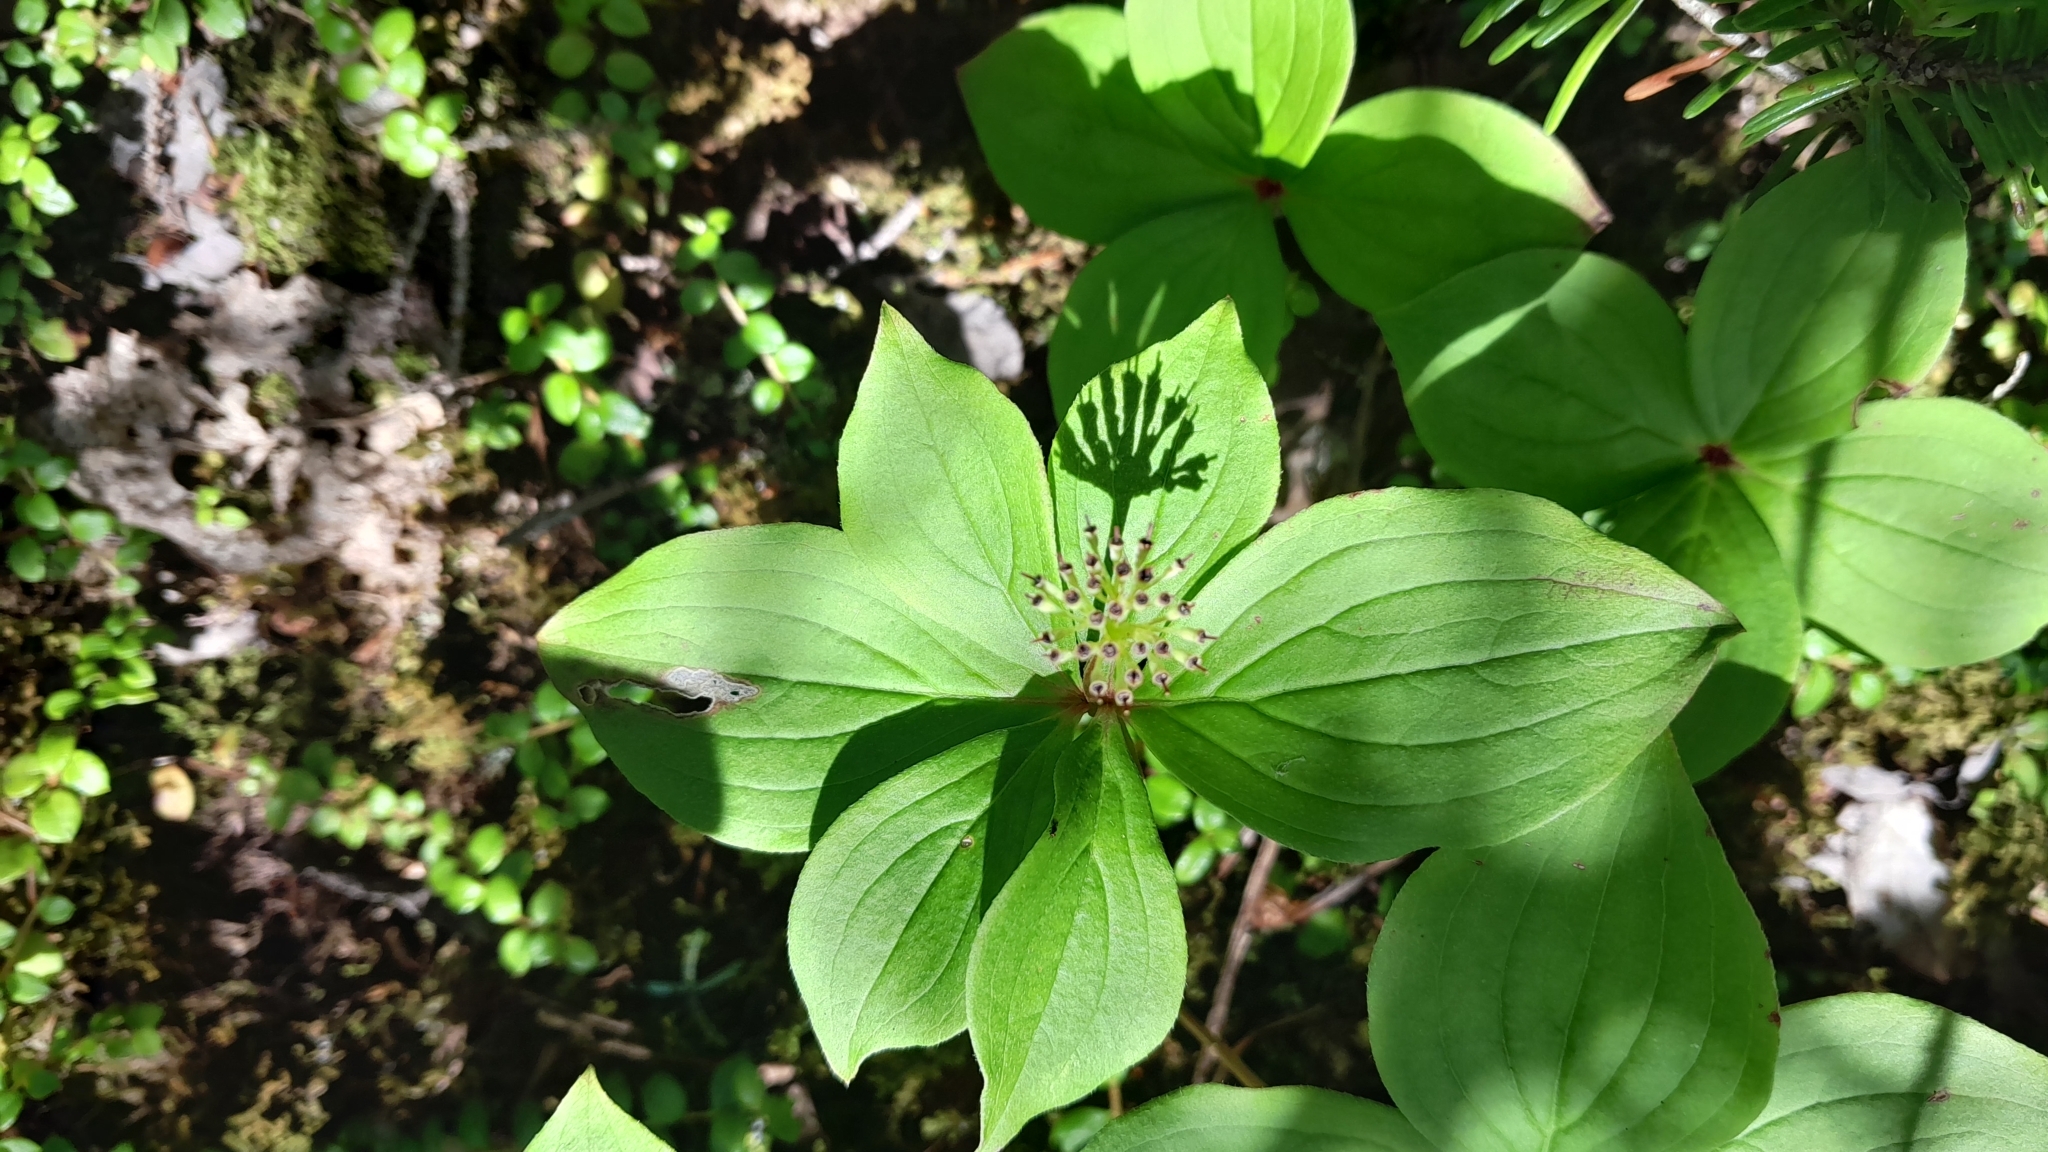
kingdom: Plantae
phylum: Tracheophyta
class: Magnoliopsida
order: Cornales
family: Cornaceae
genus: Cornus
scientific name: Cornus canadensis
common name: Creeping dogwood
